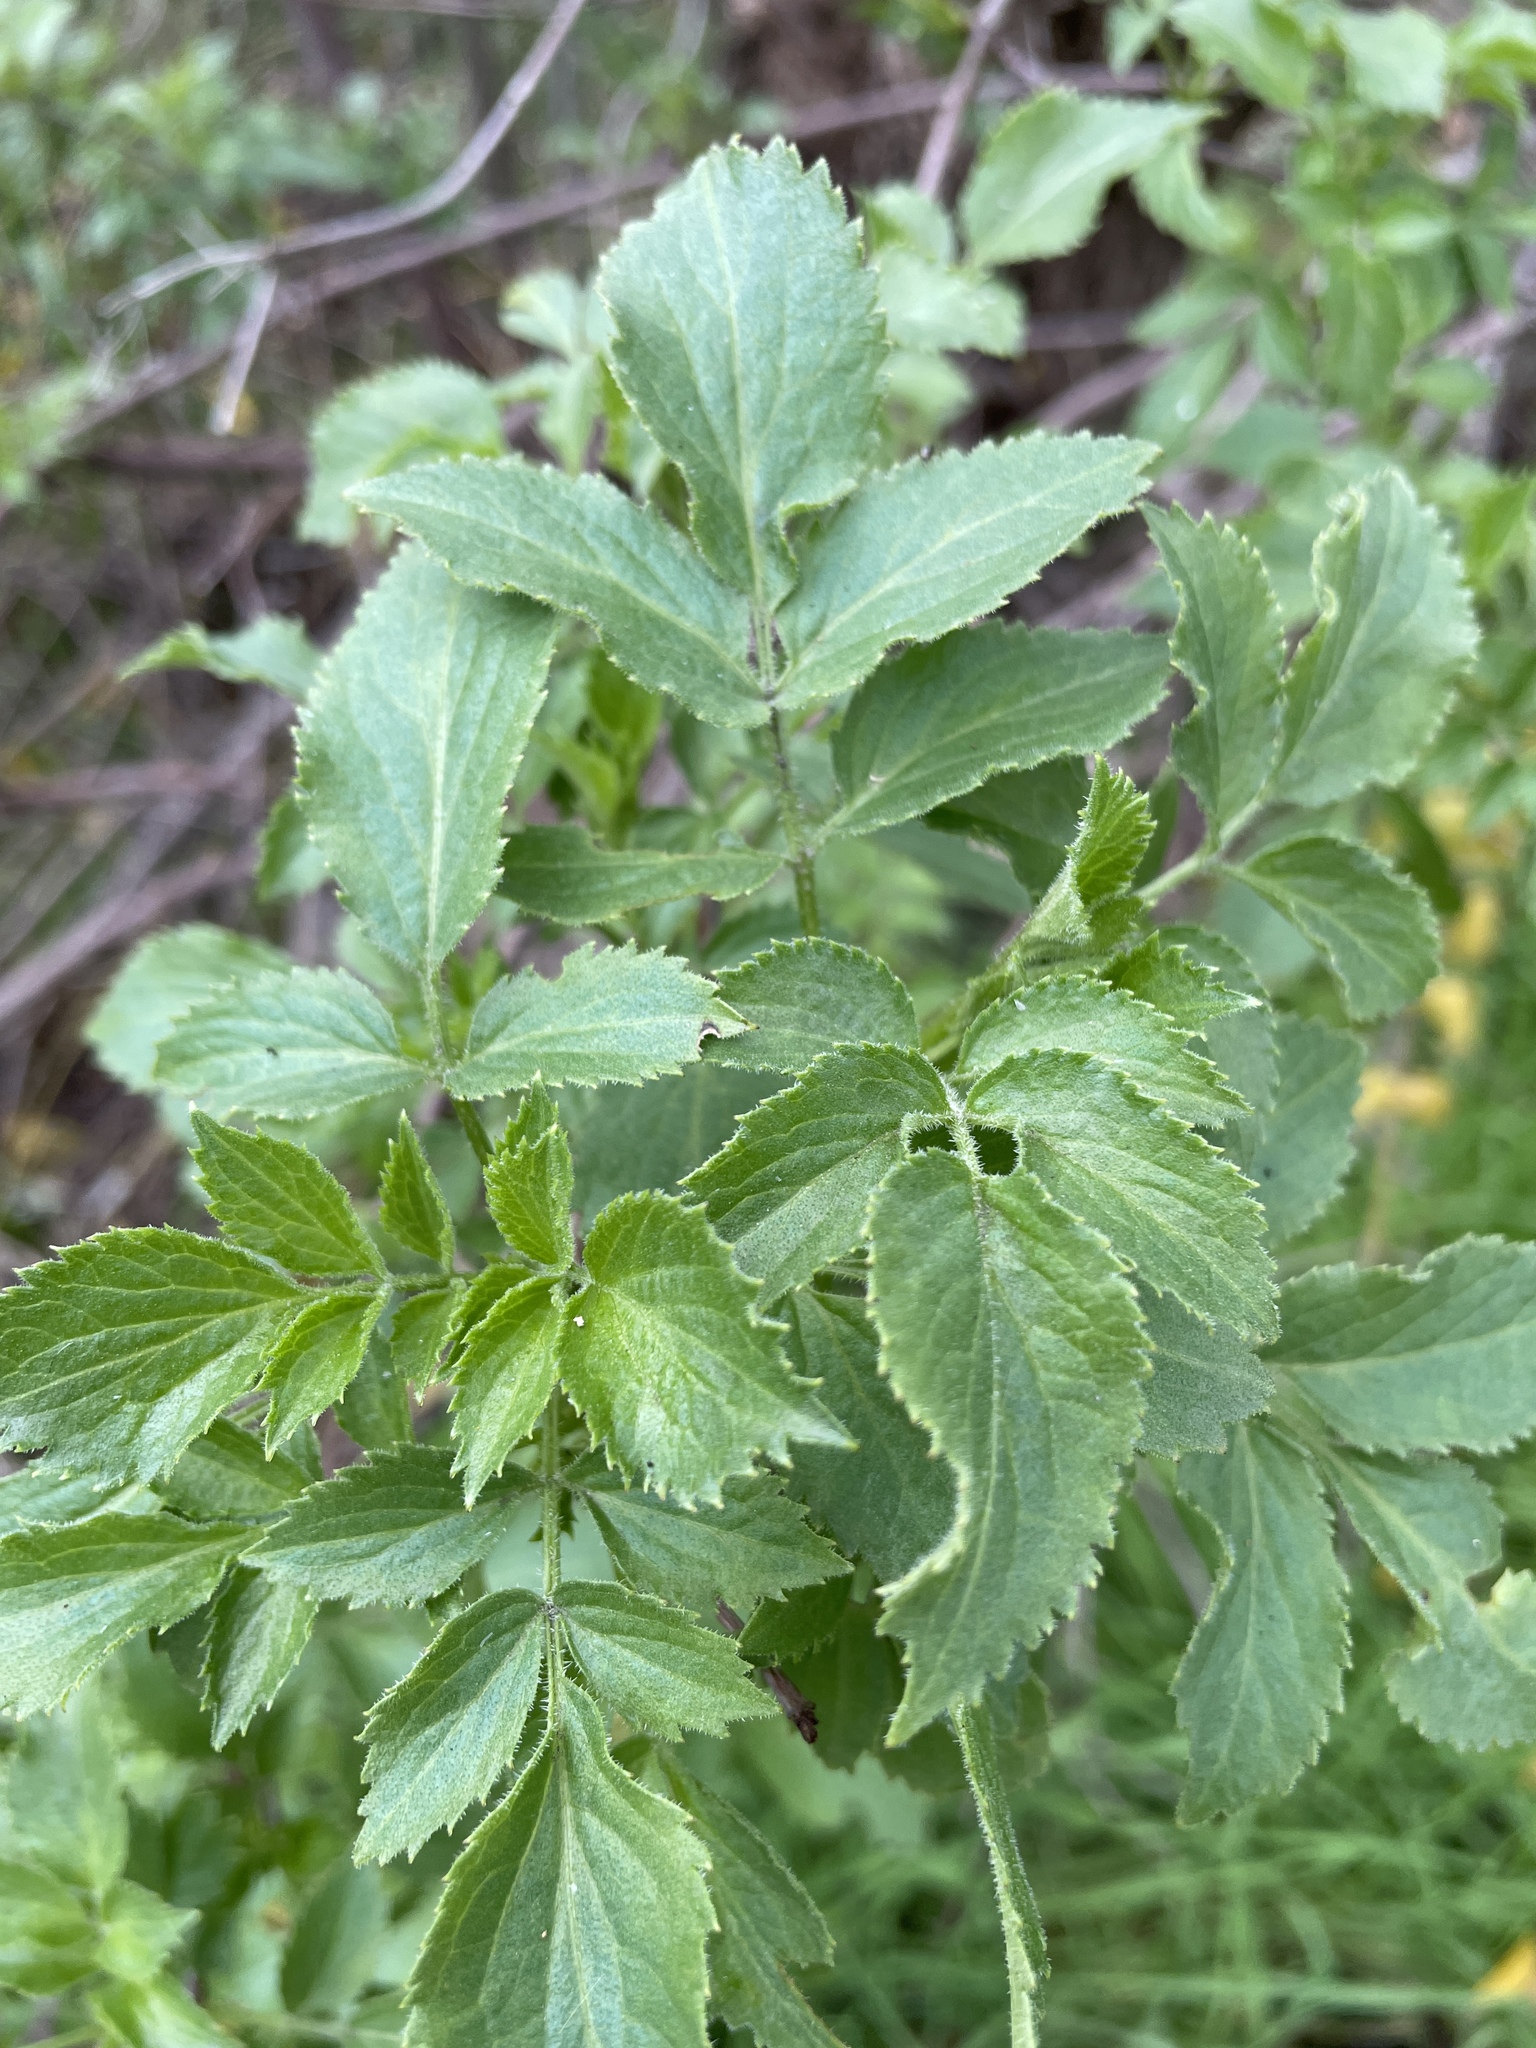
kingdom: Plantae
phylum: Tracheophyta
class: Magnoliopsida
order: Dipsacales
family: Viburnaceae
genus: Sambucus
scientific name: Sambucus cerulea
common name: Blue elder
